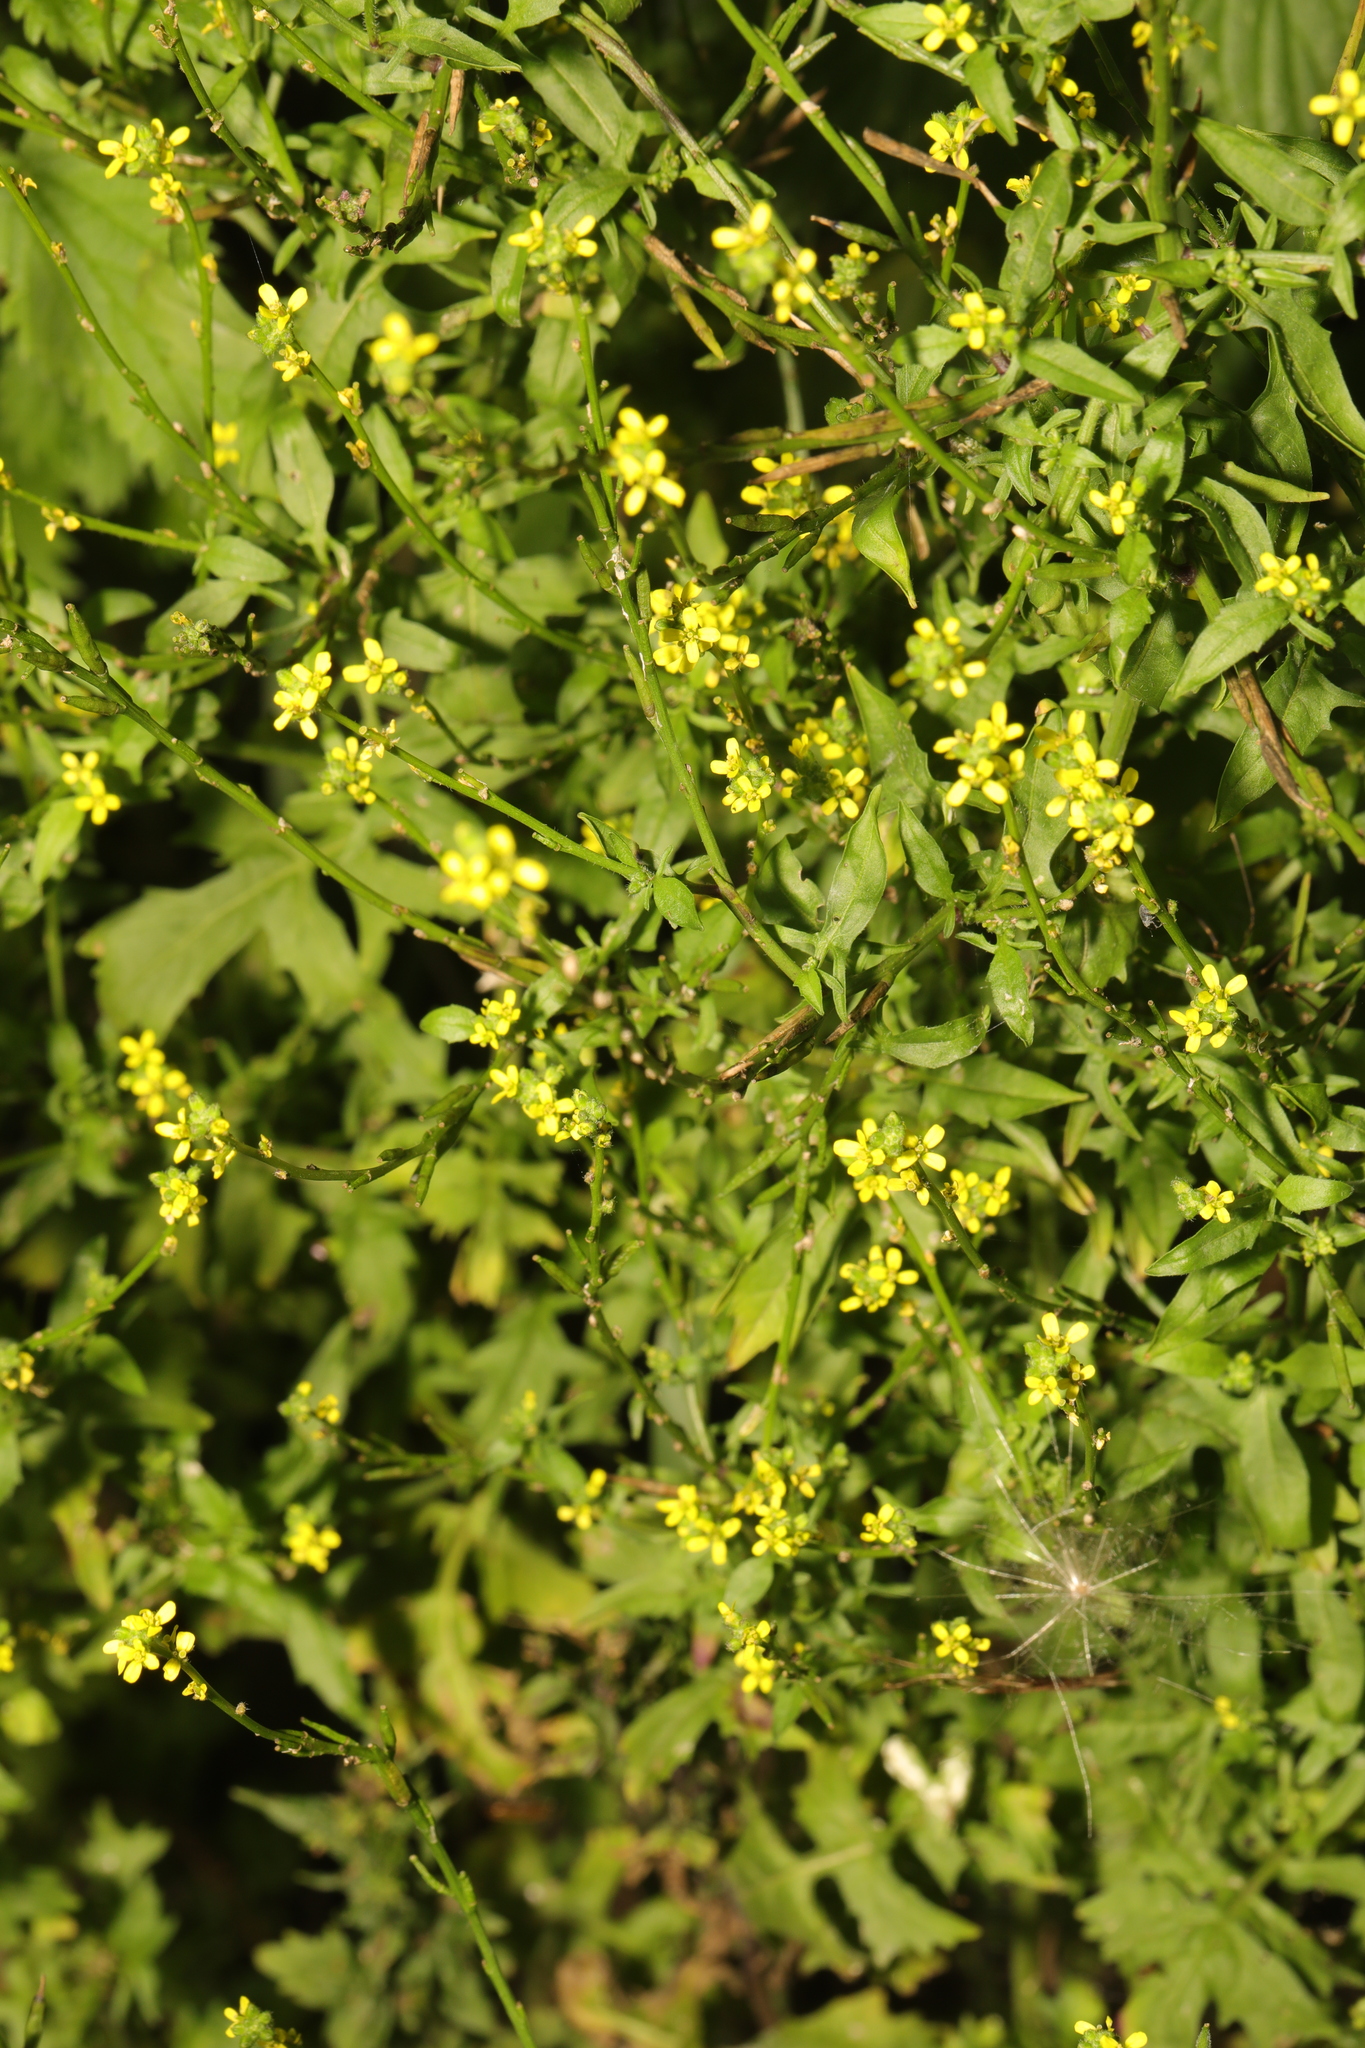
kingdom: Plantae
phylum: Tracheophyta
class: Magnoliopsida
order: Brassicales
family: Brassicaceae
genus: Sisymbrium
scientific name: Sisymbrium officinale
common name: Hedge mustard
